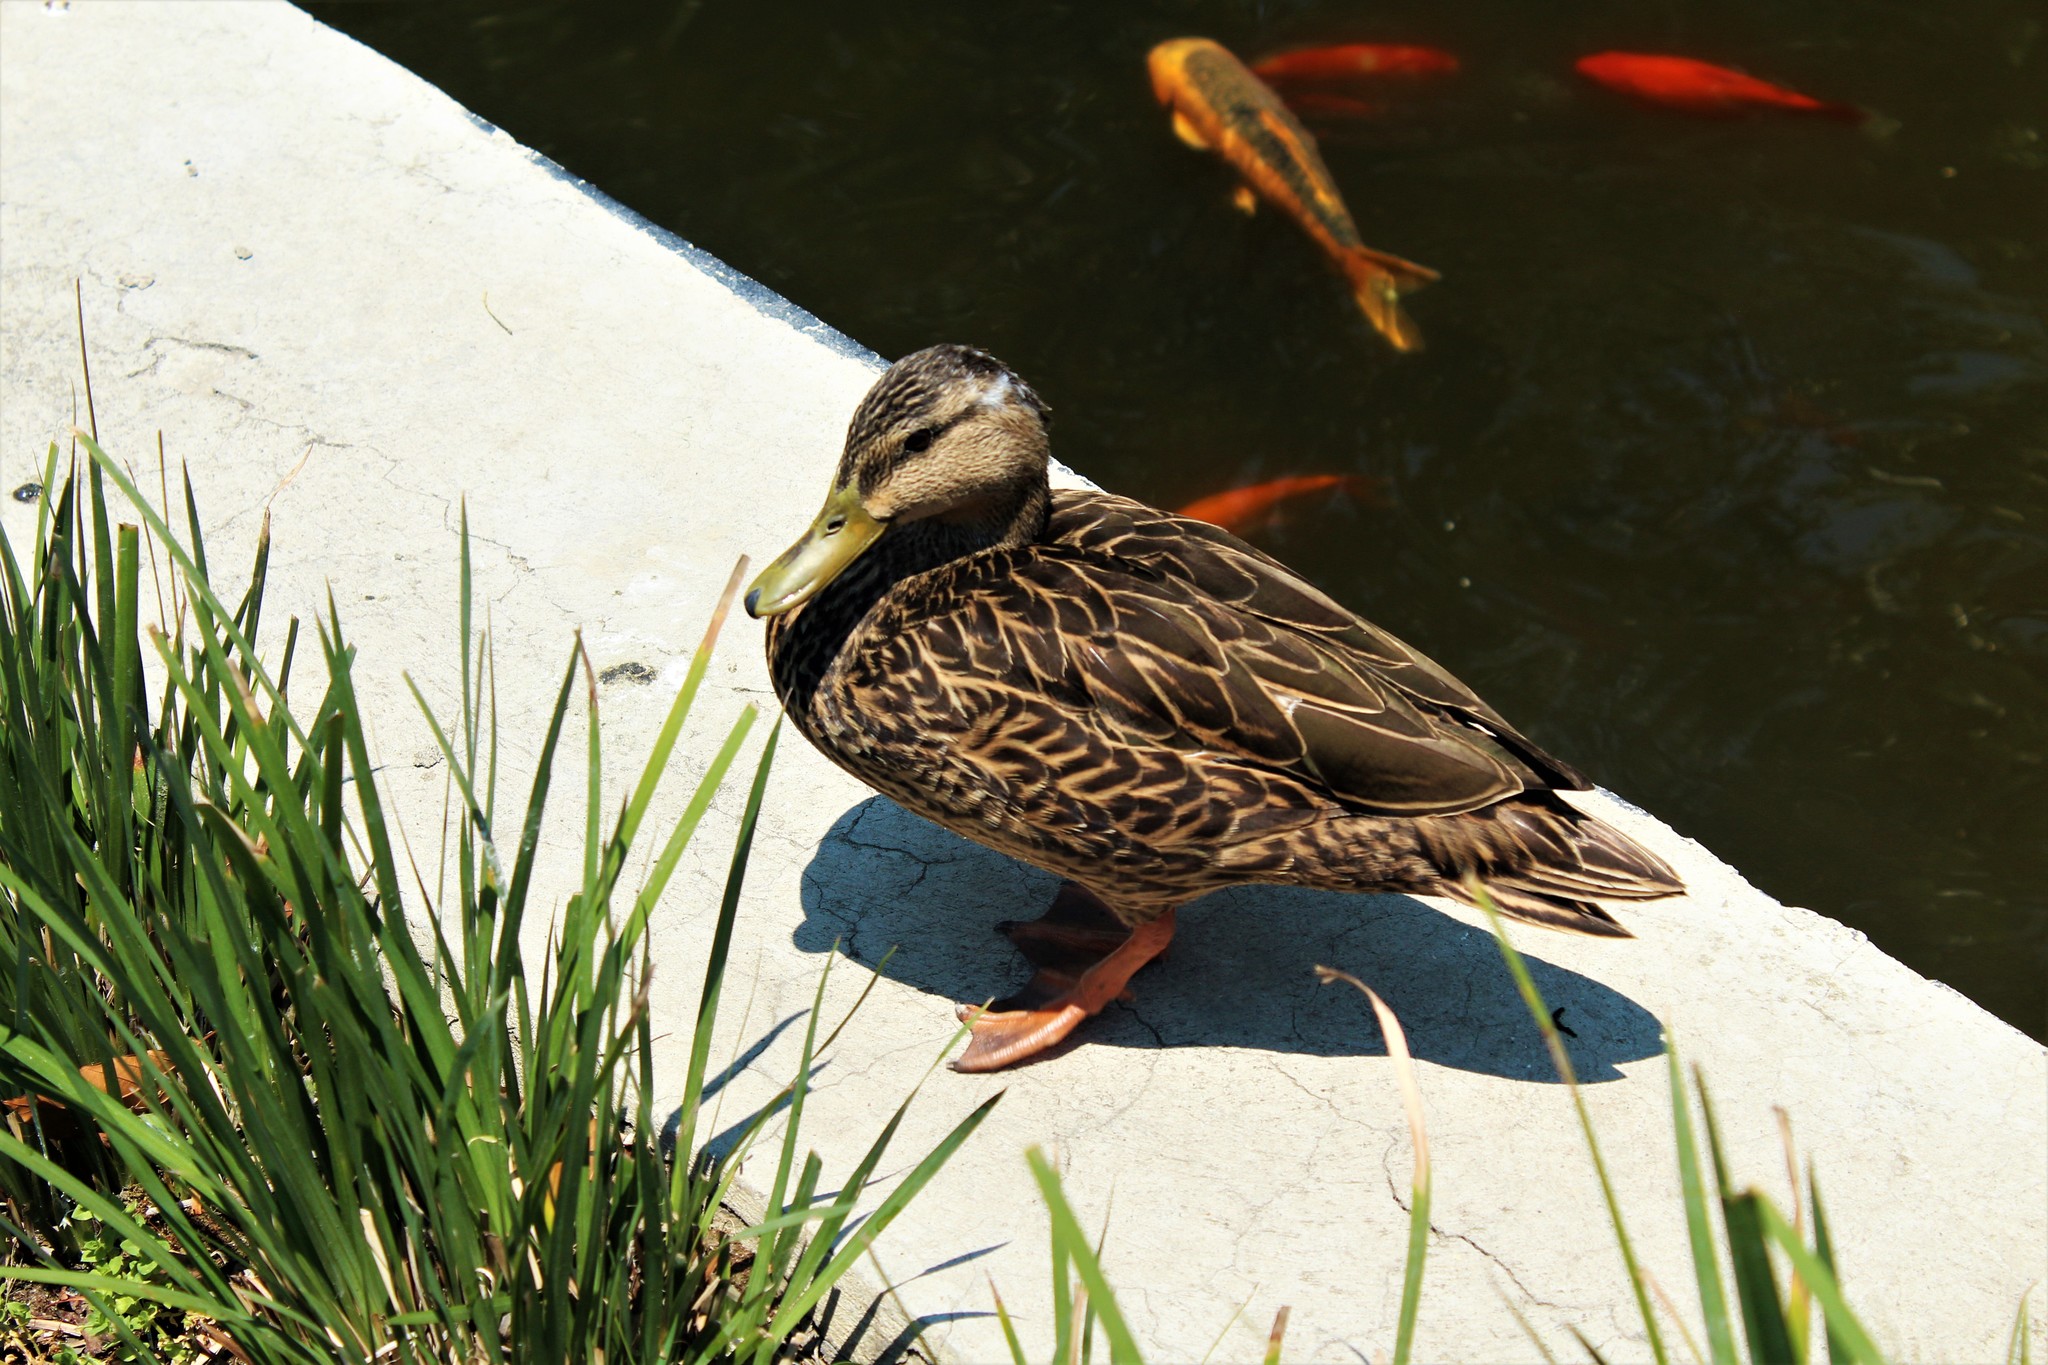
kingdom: Animalia
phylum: Chordata
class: Aves
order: Anseriformes
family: Anatidae
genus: Anas
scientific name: Anas diazi
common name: Mexican duck
